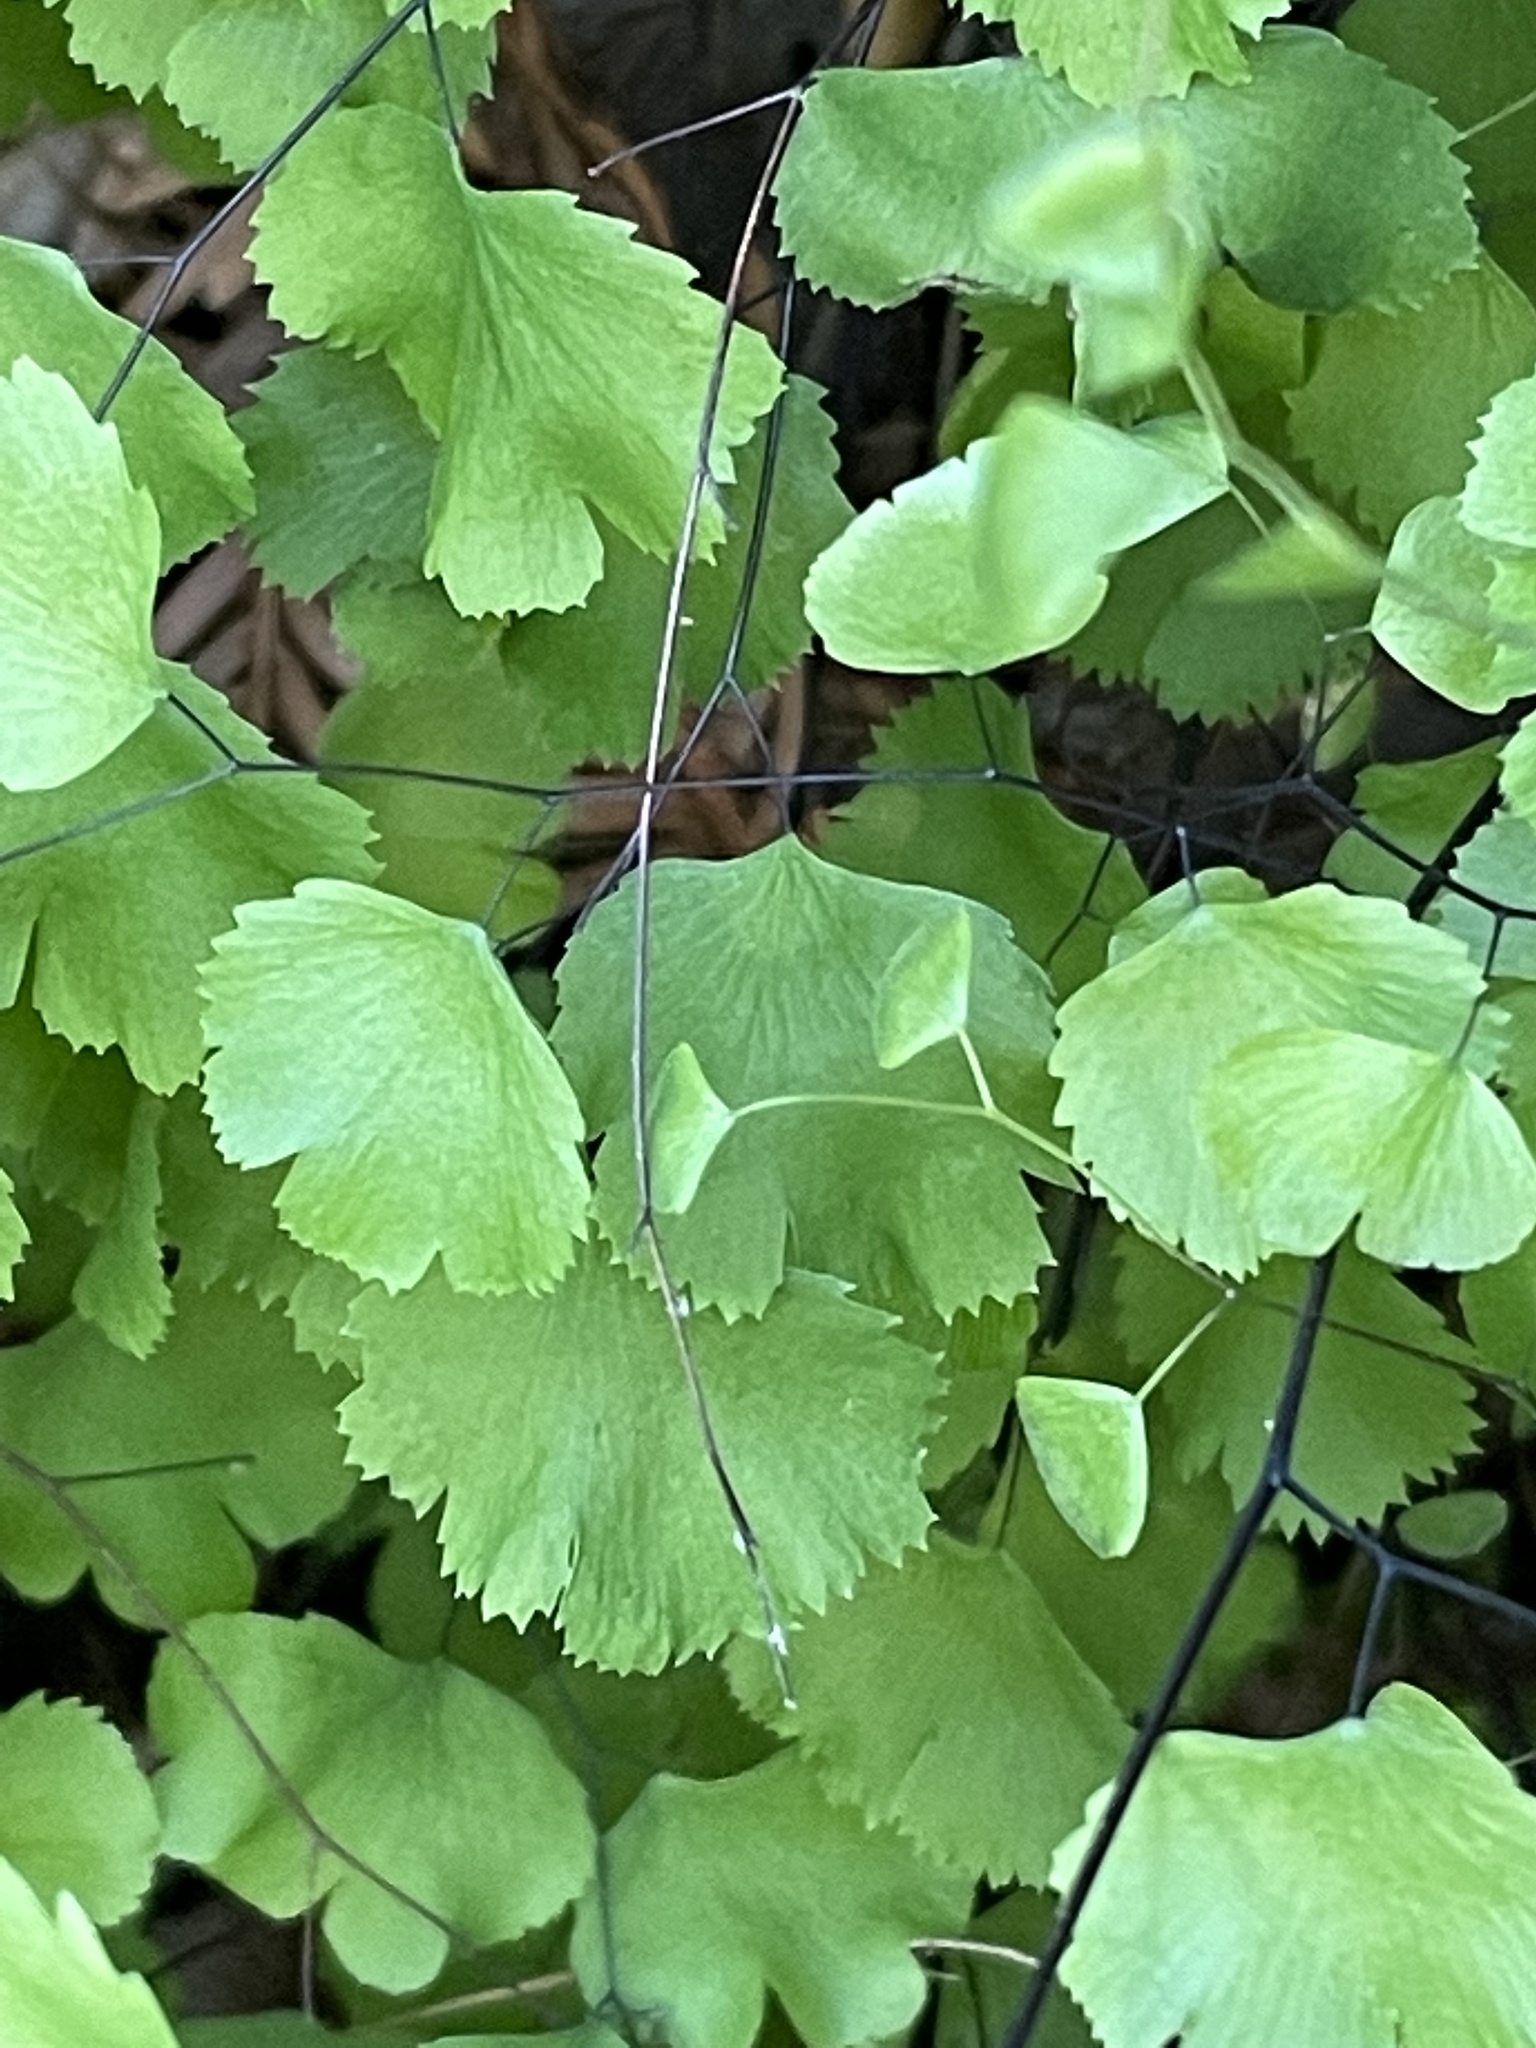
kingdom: Plantae
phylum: Tracheophyta
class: Polypodiopsida
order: Polypodiales
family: Pteridaceae
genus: Adiantum
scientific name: Adiantum jordanii
